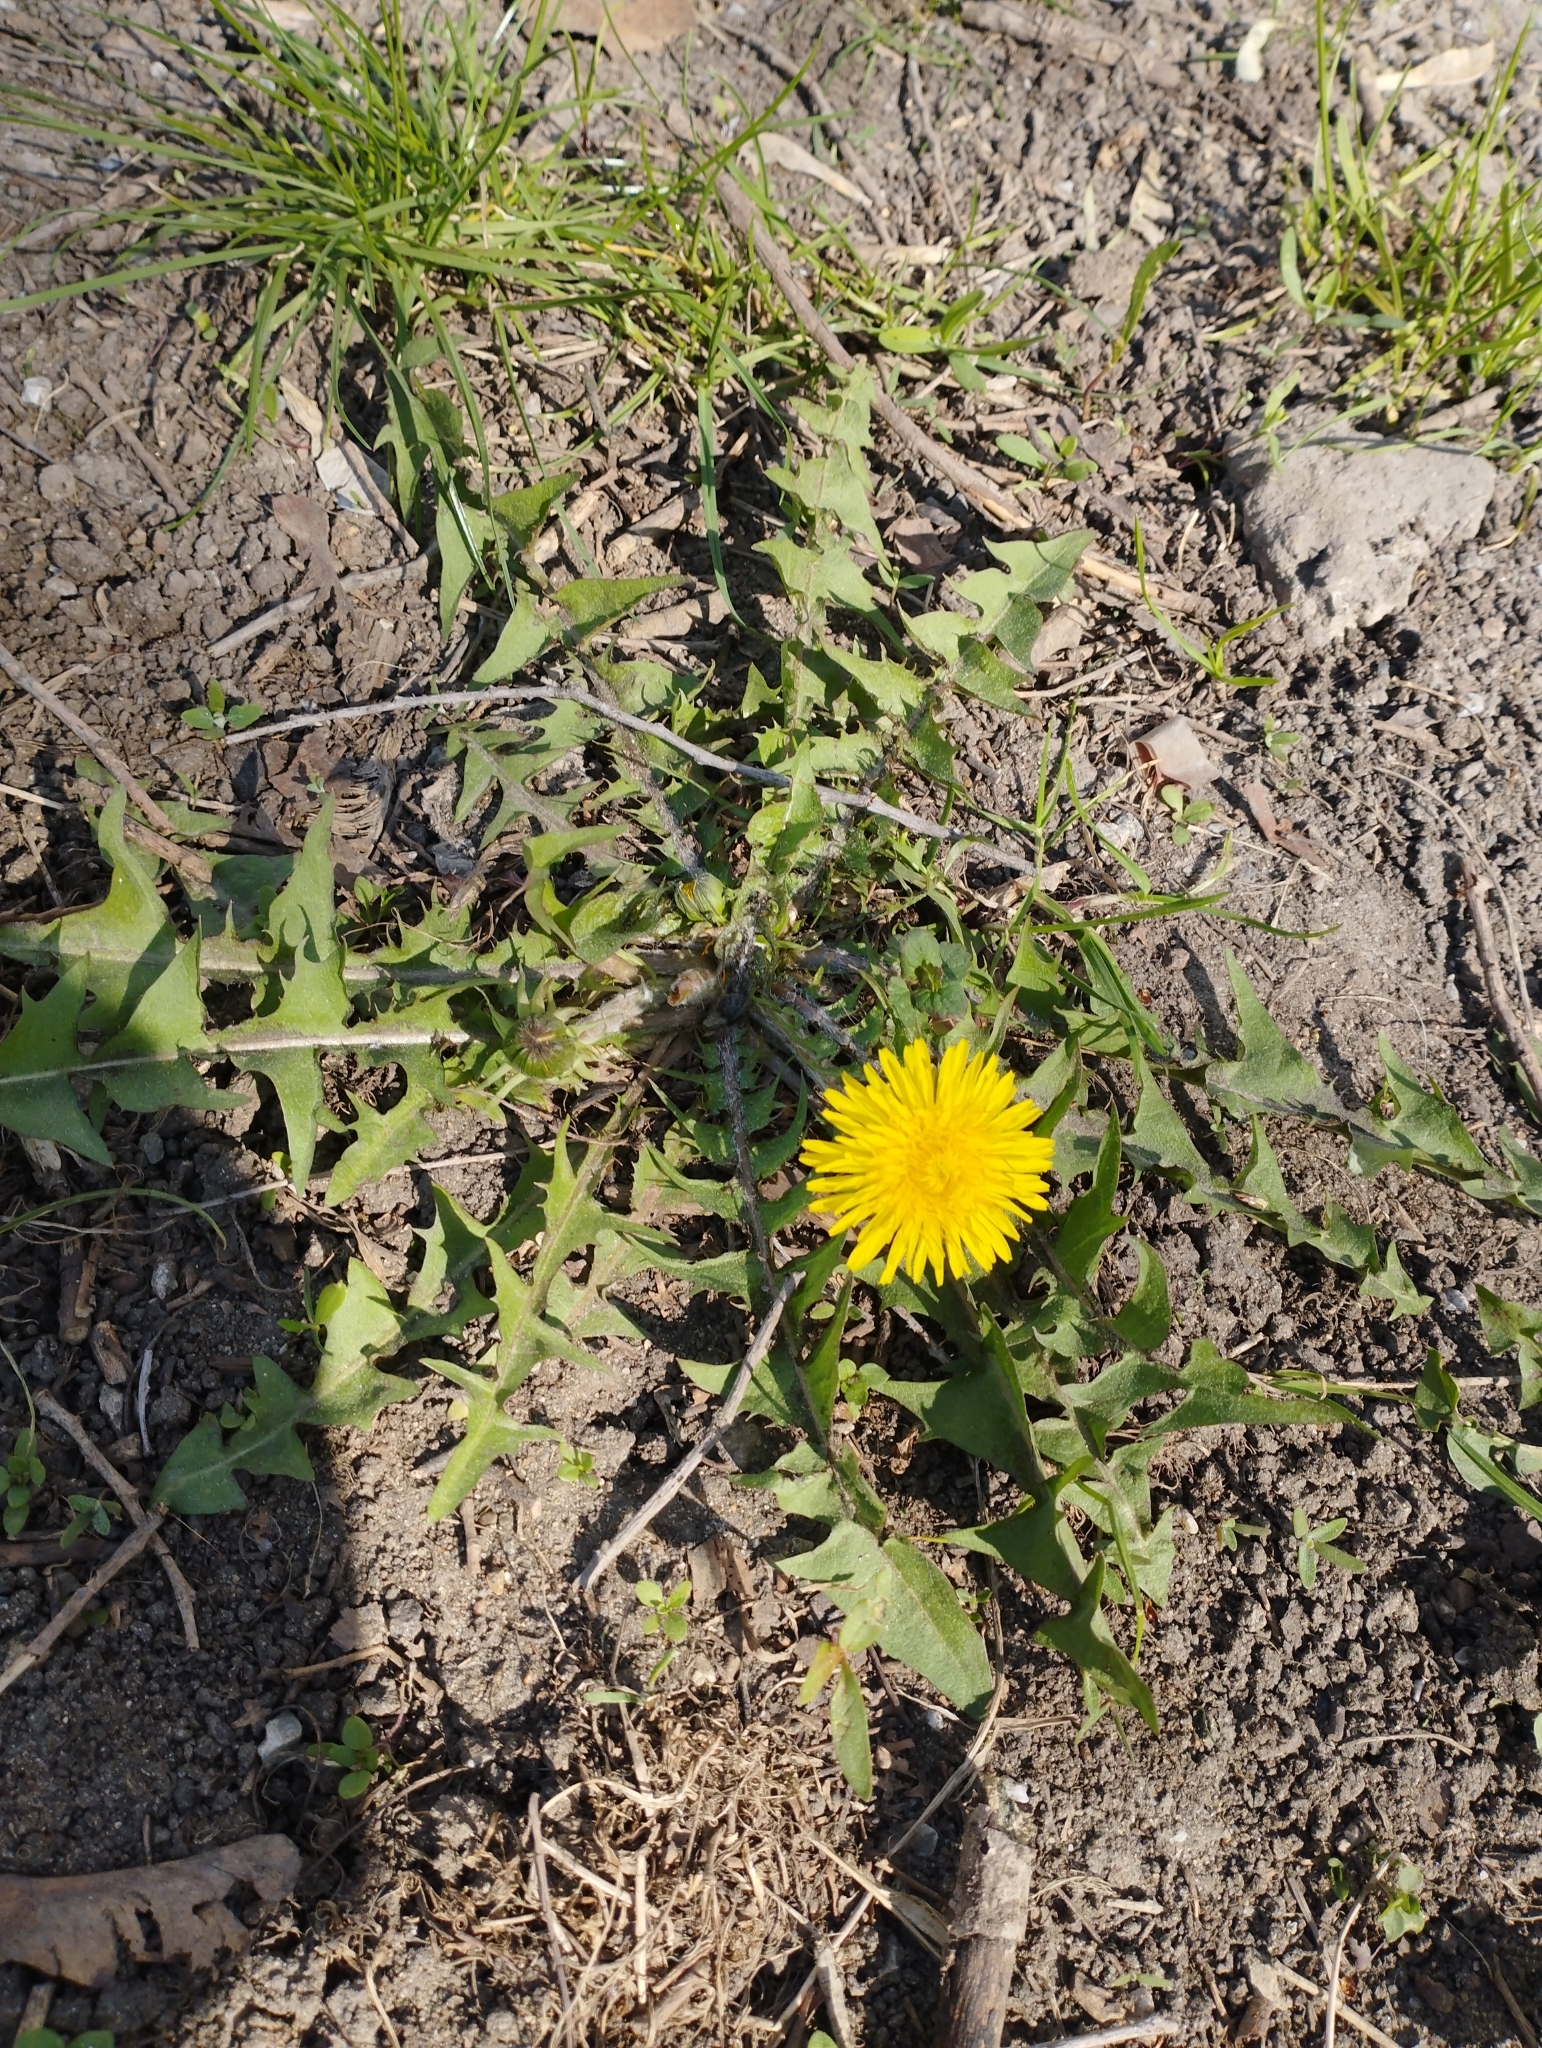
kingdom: Plantae
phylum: Tracheophyta
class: Magnoliopsida
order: Asterales
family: Asteraceae
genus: Taraxacum
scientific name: Taraxacum officinale
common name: Common dandelion
